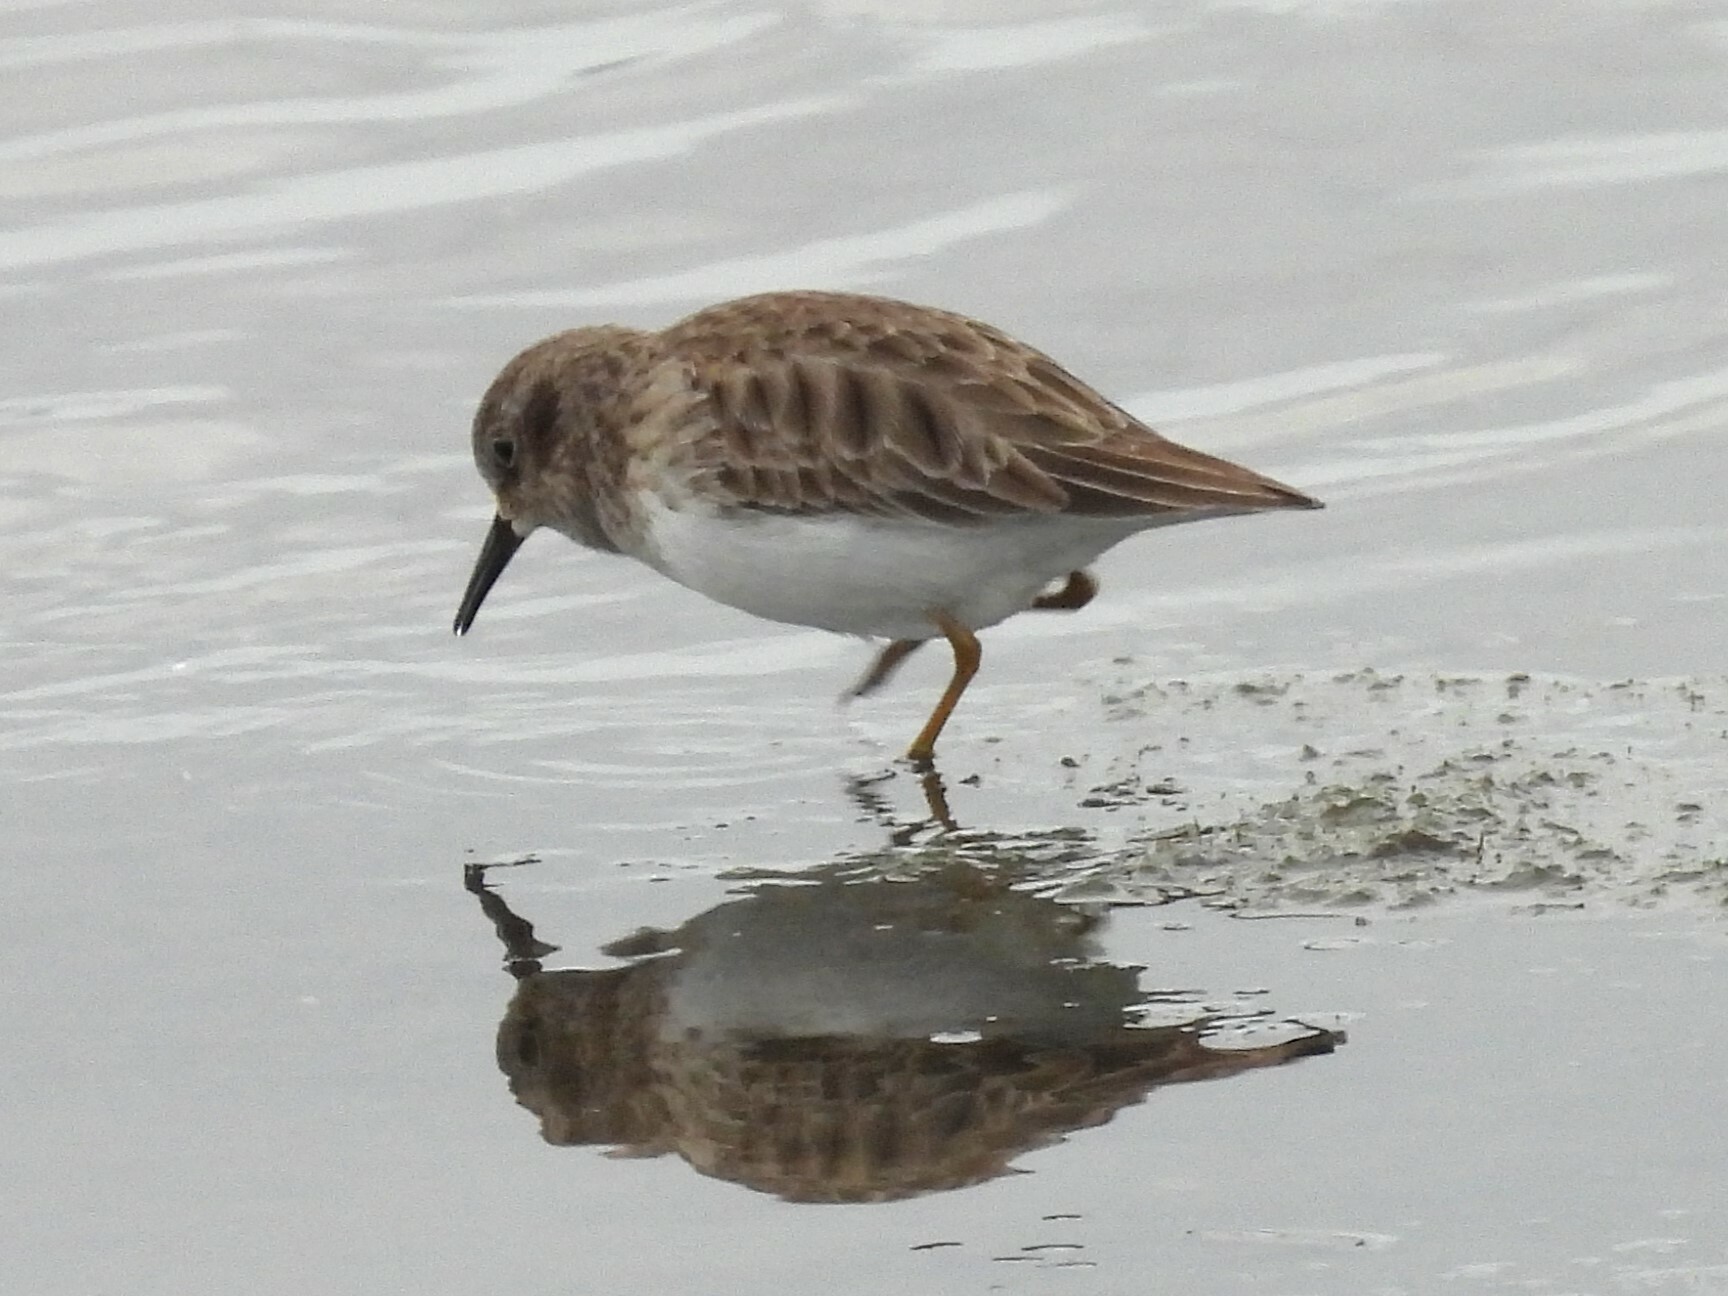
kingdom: Animalia
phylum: Chordata
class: Aves
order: Charadriiformes
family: Scolopacidae
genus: Calidris
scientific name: Calidris minutilla
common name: Least sandpiper
